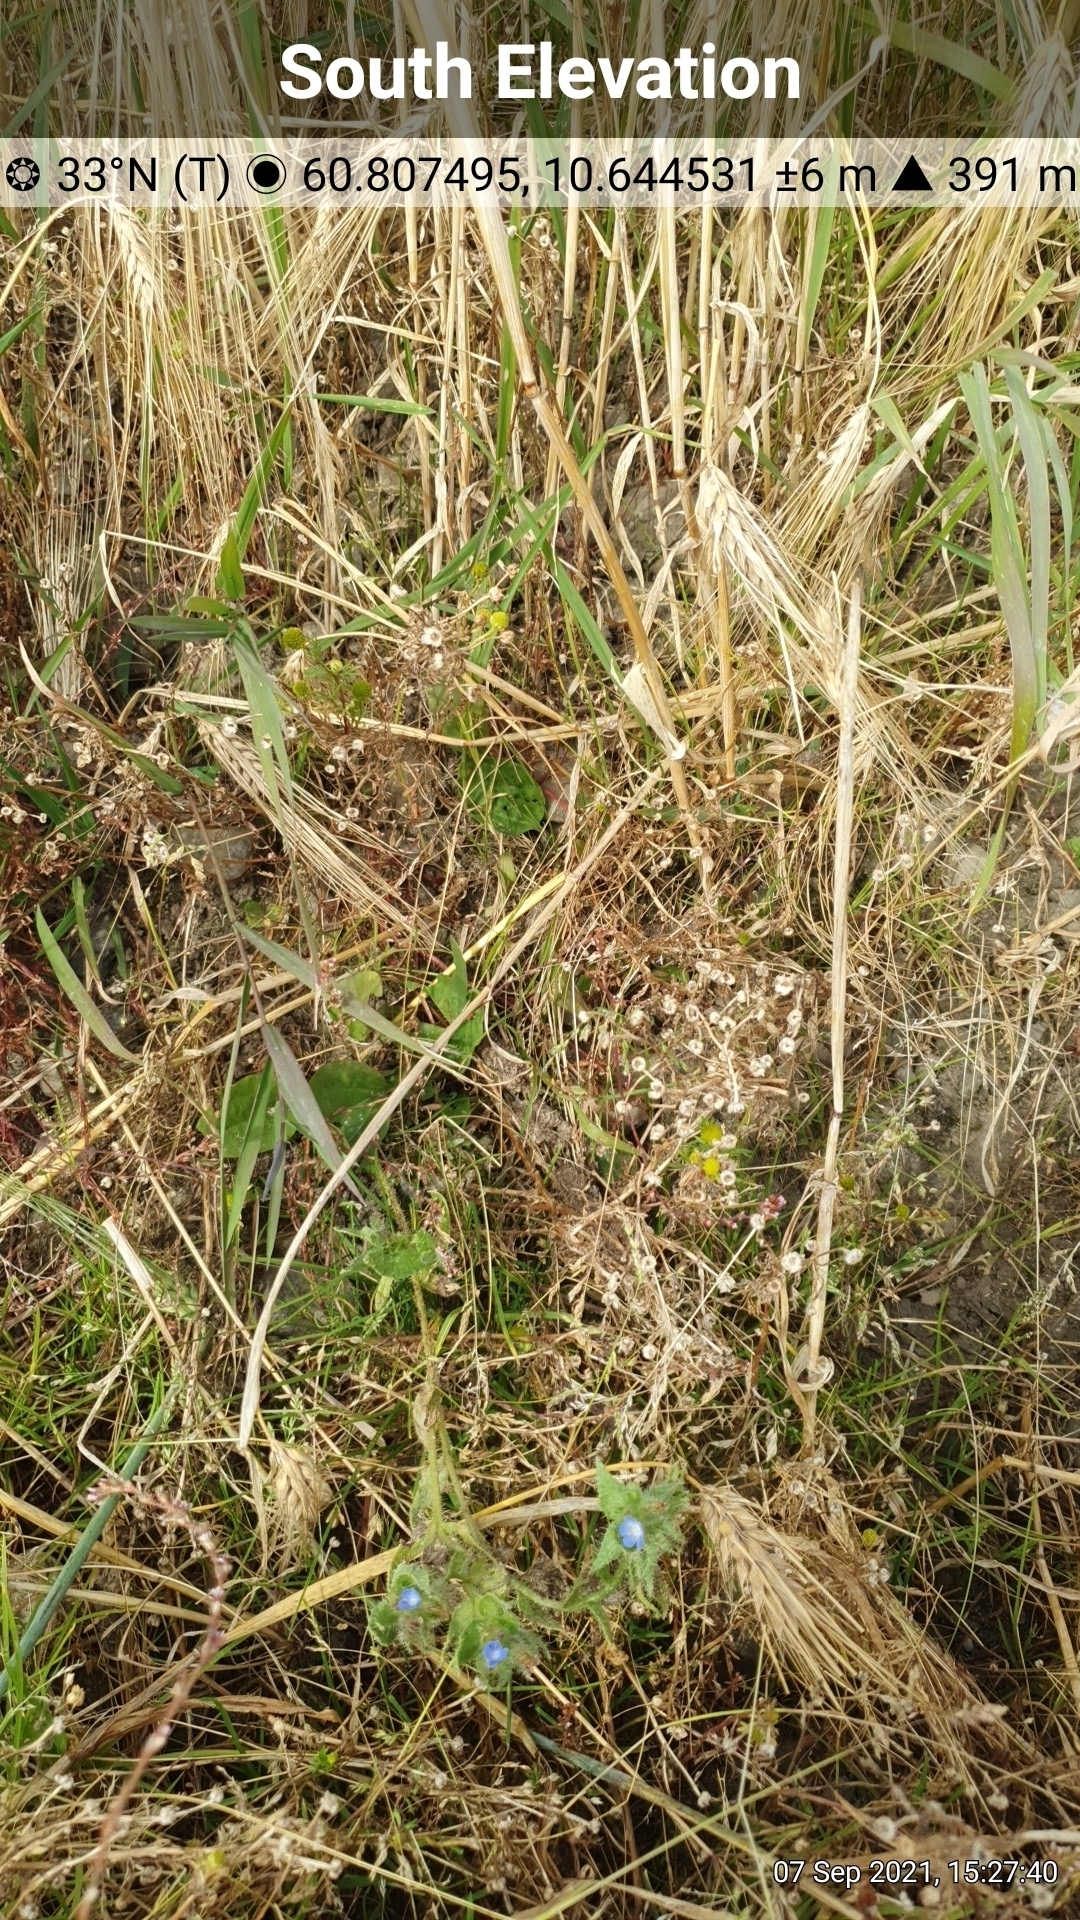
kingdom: Plantae
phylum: Tracheophyta
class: Magnoliopsida
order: Boraginales
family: Boraginaceae
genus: Lycopsis
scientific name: Lycopsis arvensis
